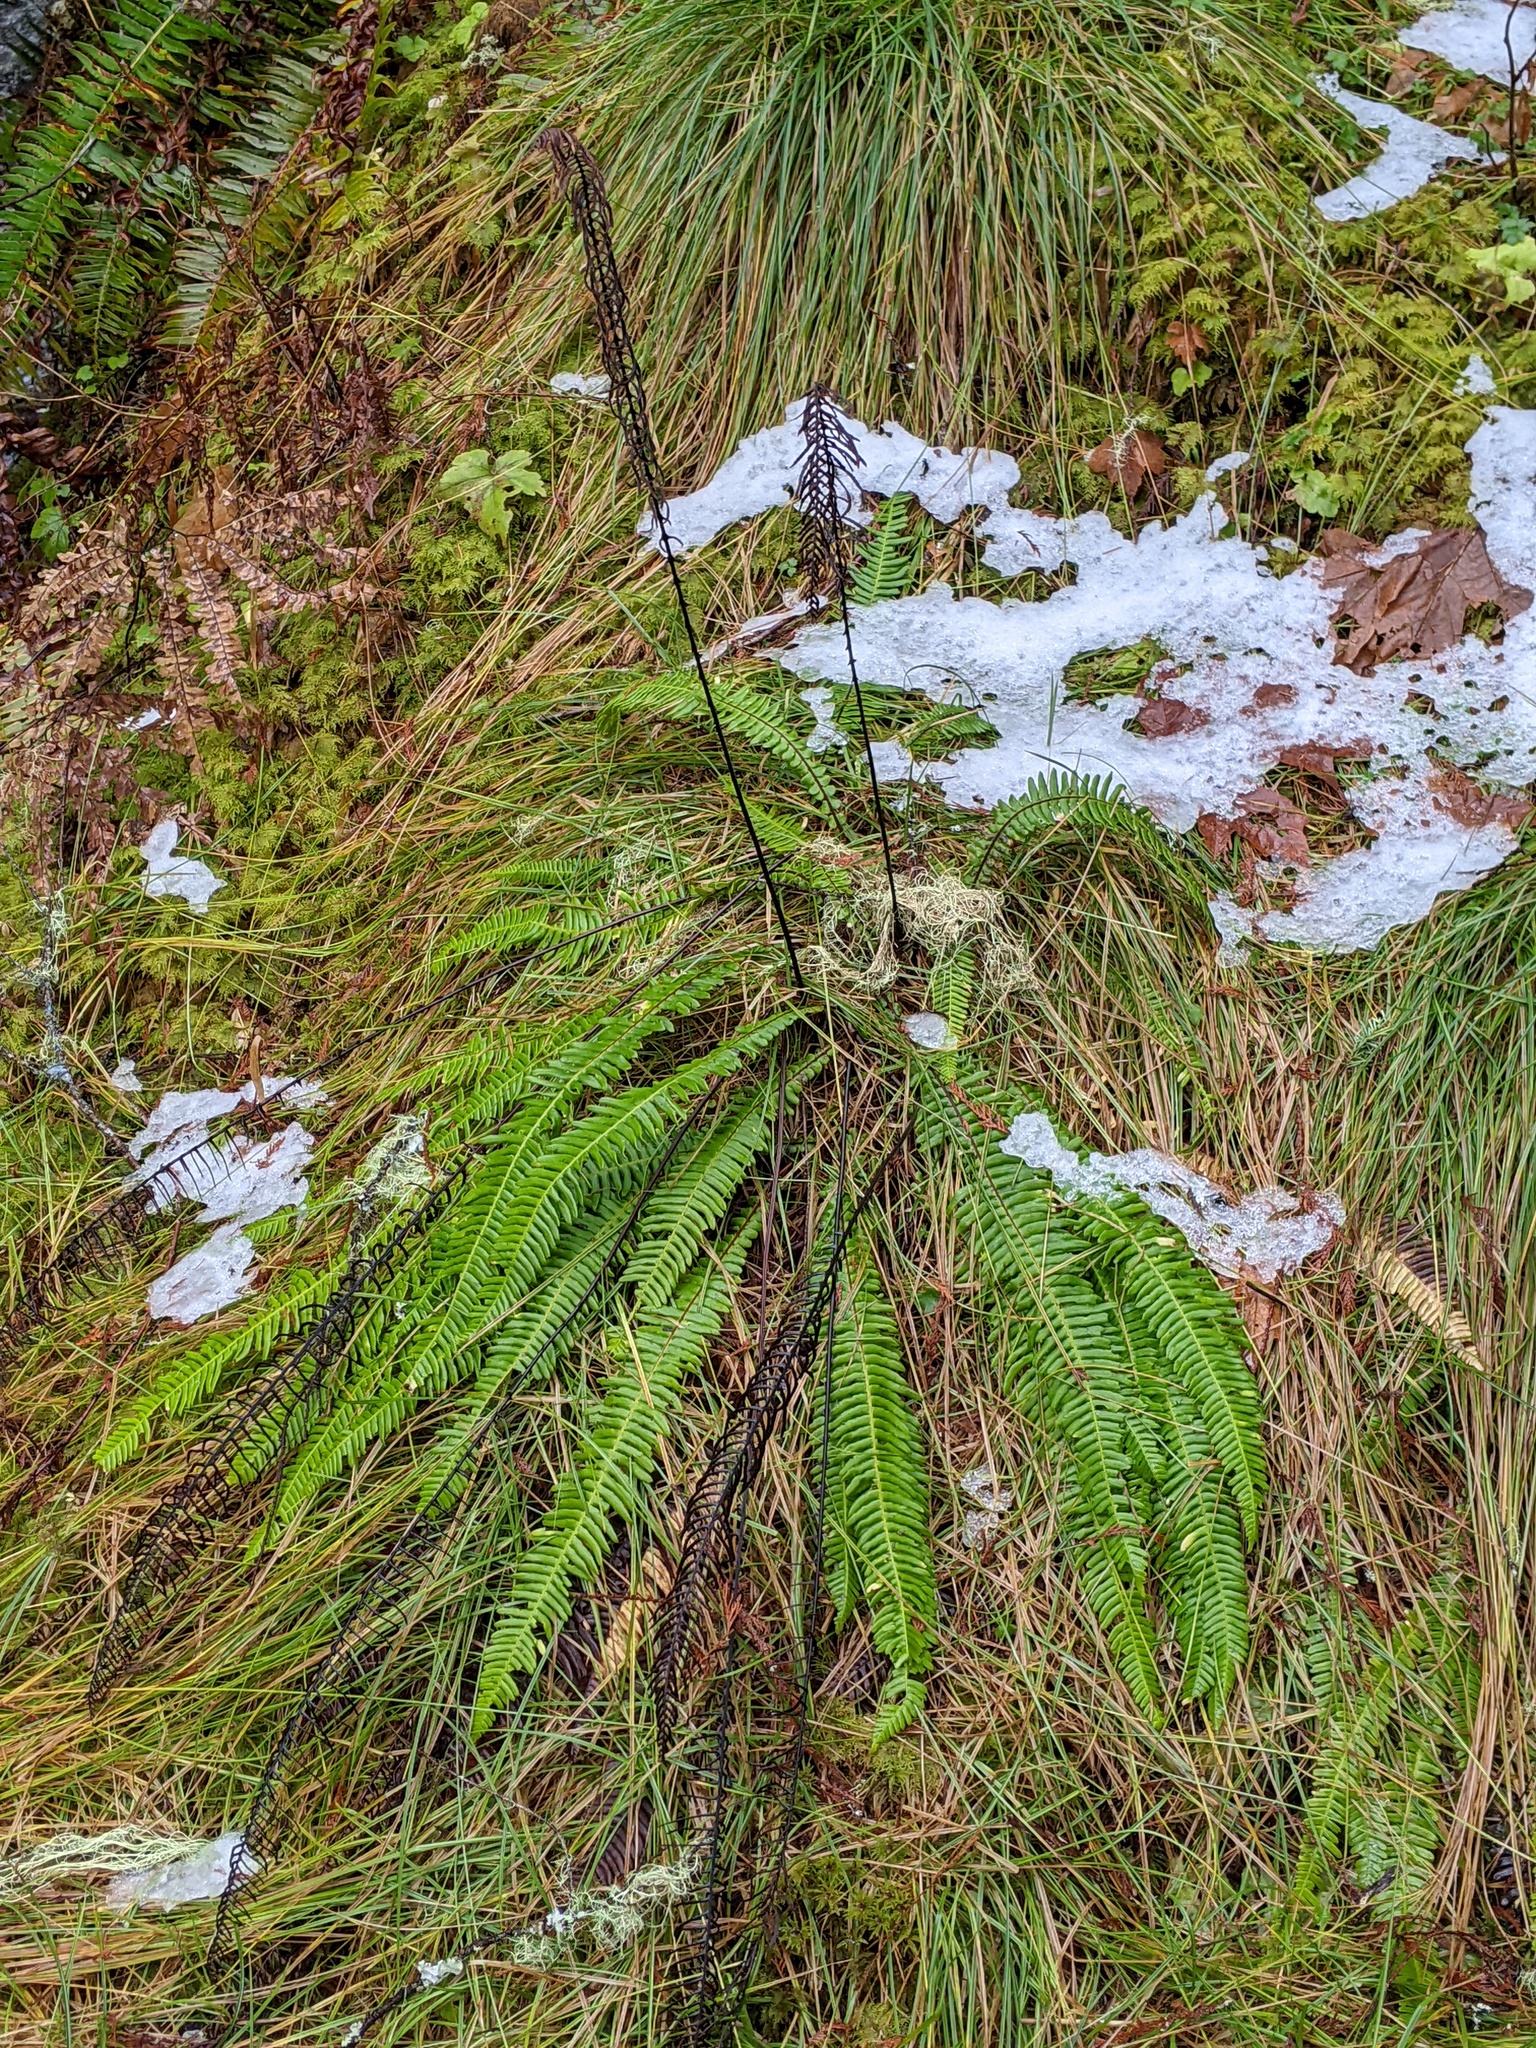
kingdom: Plantae
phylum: Tracheophyta
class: Polypodiopsida
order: Polypodiales
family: Blechnaceae
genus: Struthiopteris
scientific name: Struthiopteris spicant
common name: Deer fern
